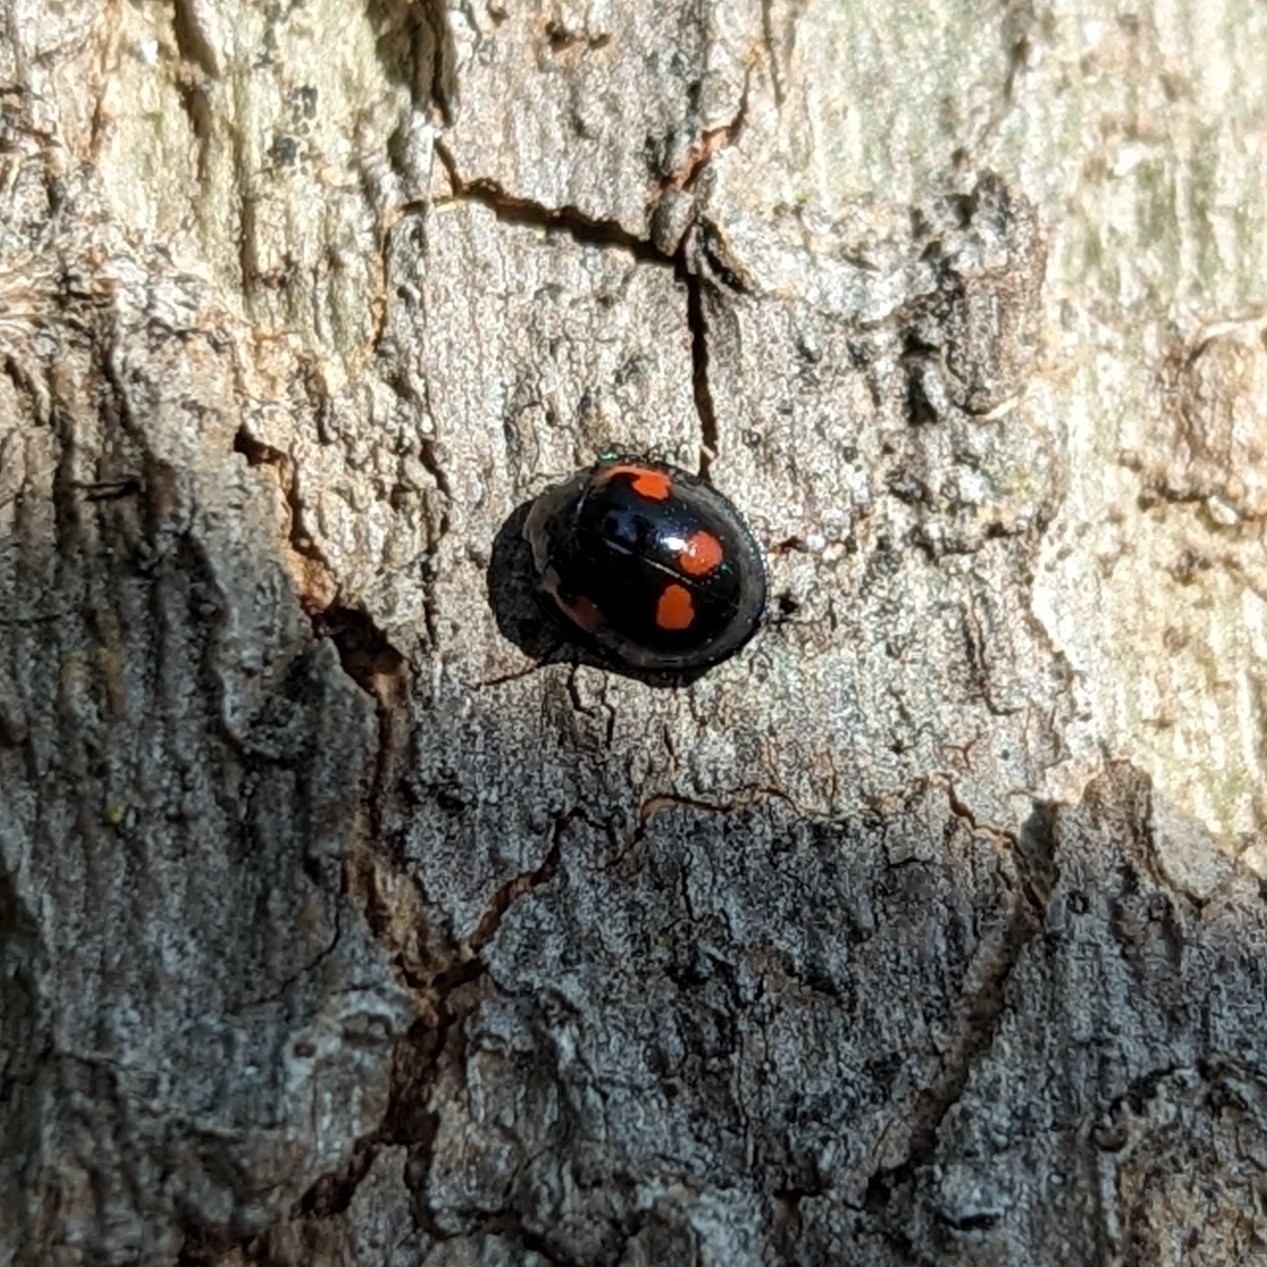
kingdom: Animalia
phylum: Arthropoda
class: Insecta
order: Coleoptera
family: Coccinellidae
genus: Brumus
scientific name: Brumus quadripustulatus
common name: Ladybird beetle
